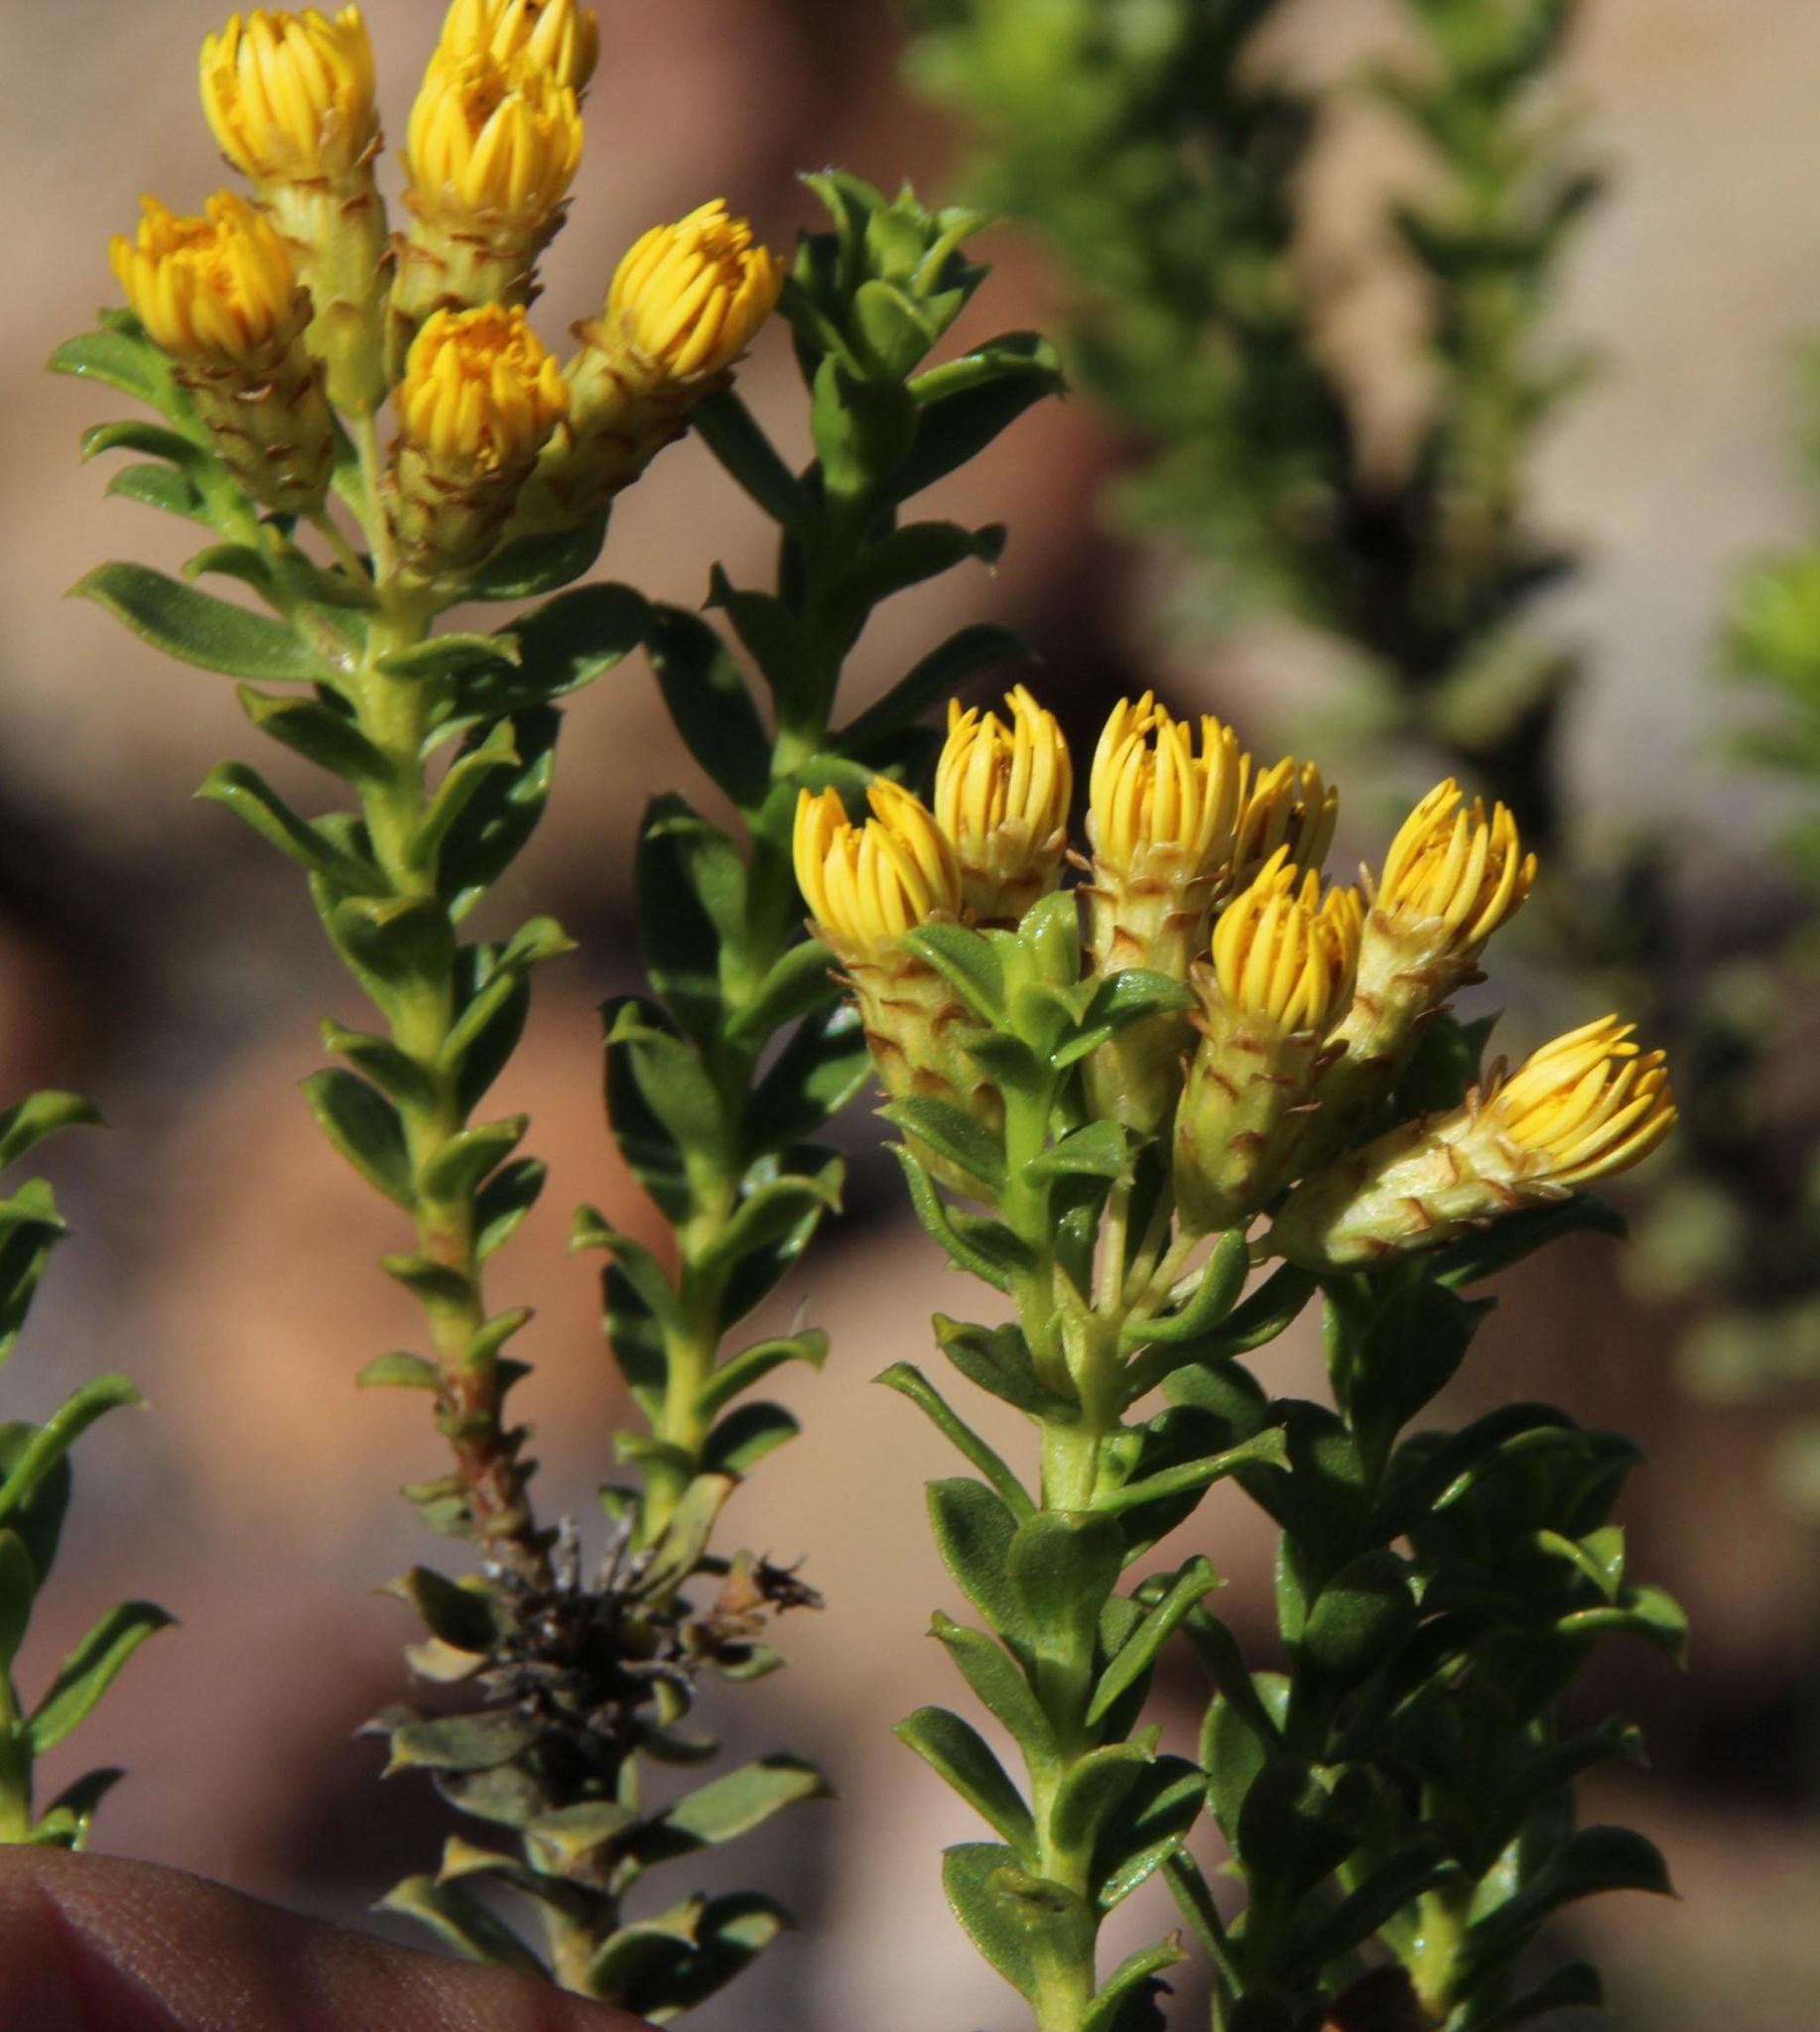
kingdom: Plantae
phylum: Tracheophyta
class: Magnoliopsida
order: Asterales
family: Asteraceae
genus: Oedera
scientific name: Oedera squarrosa
